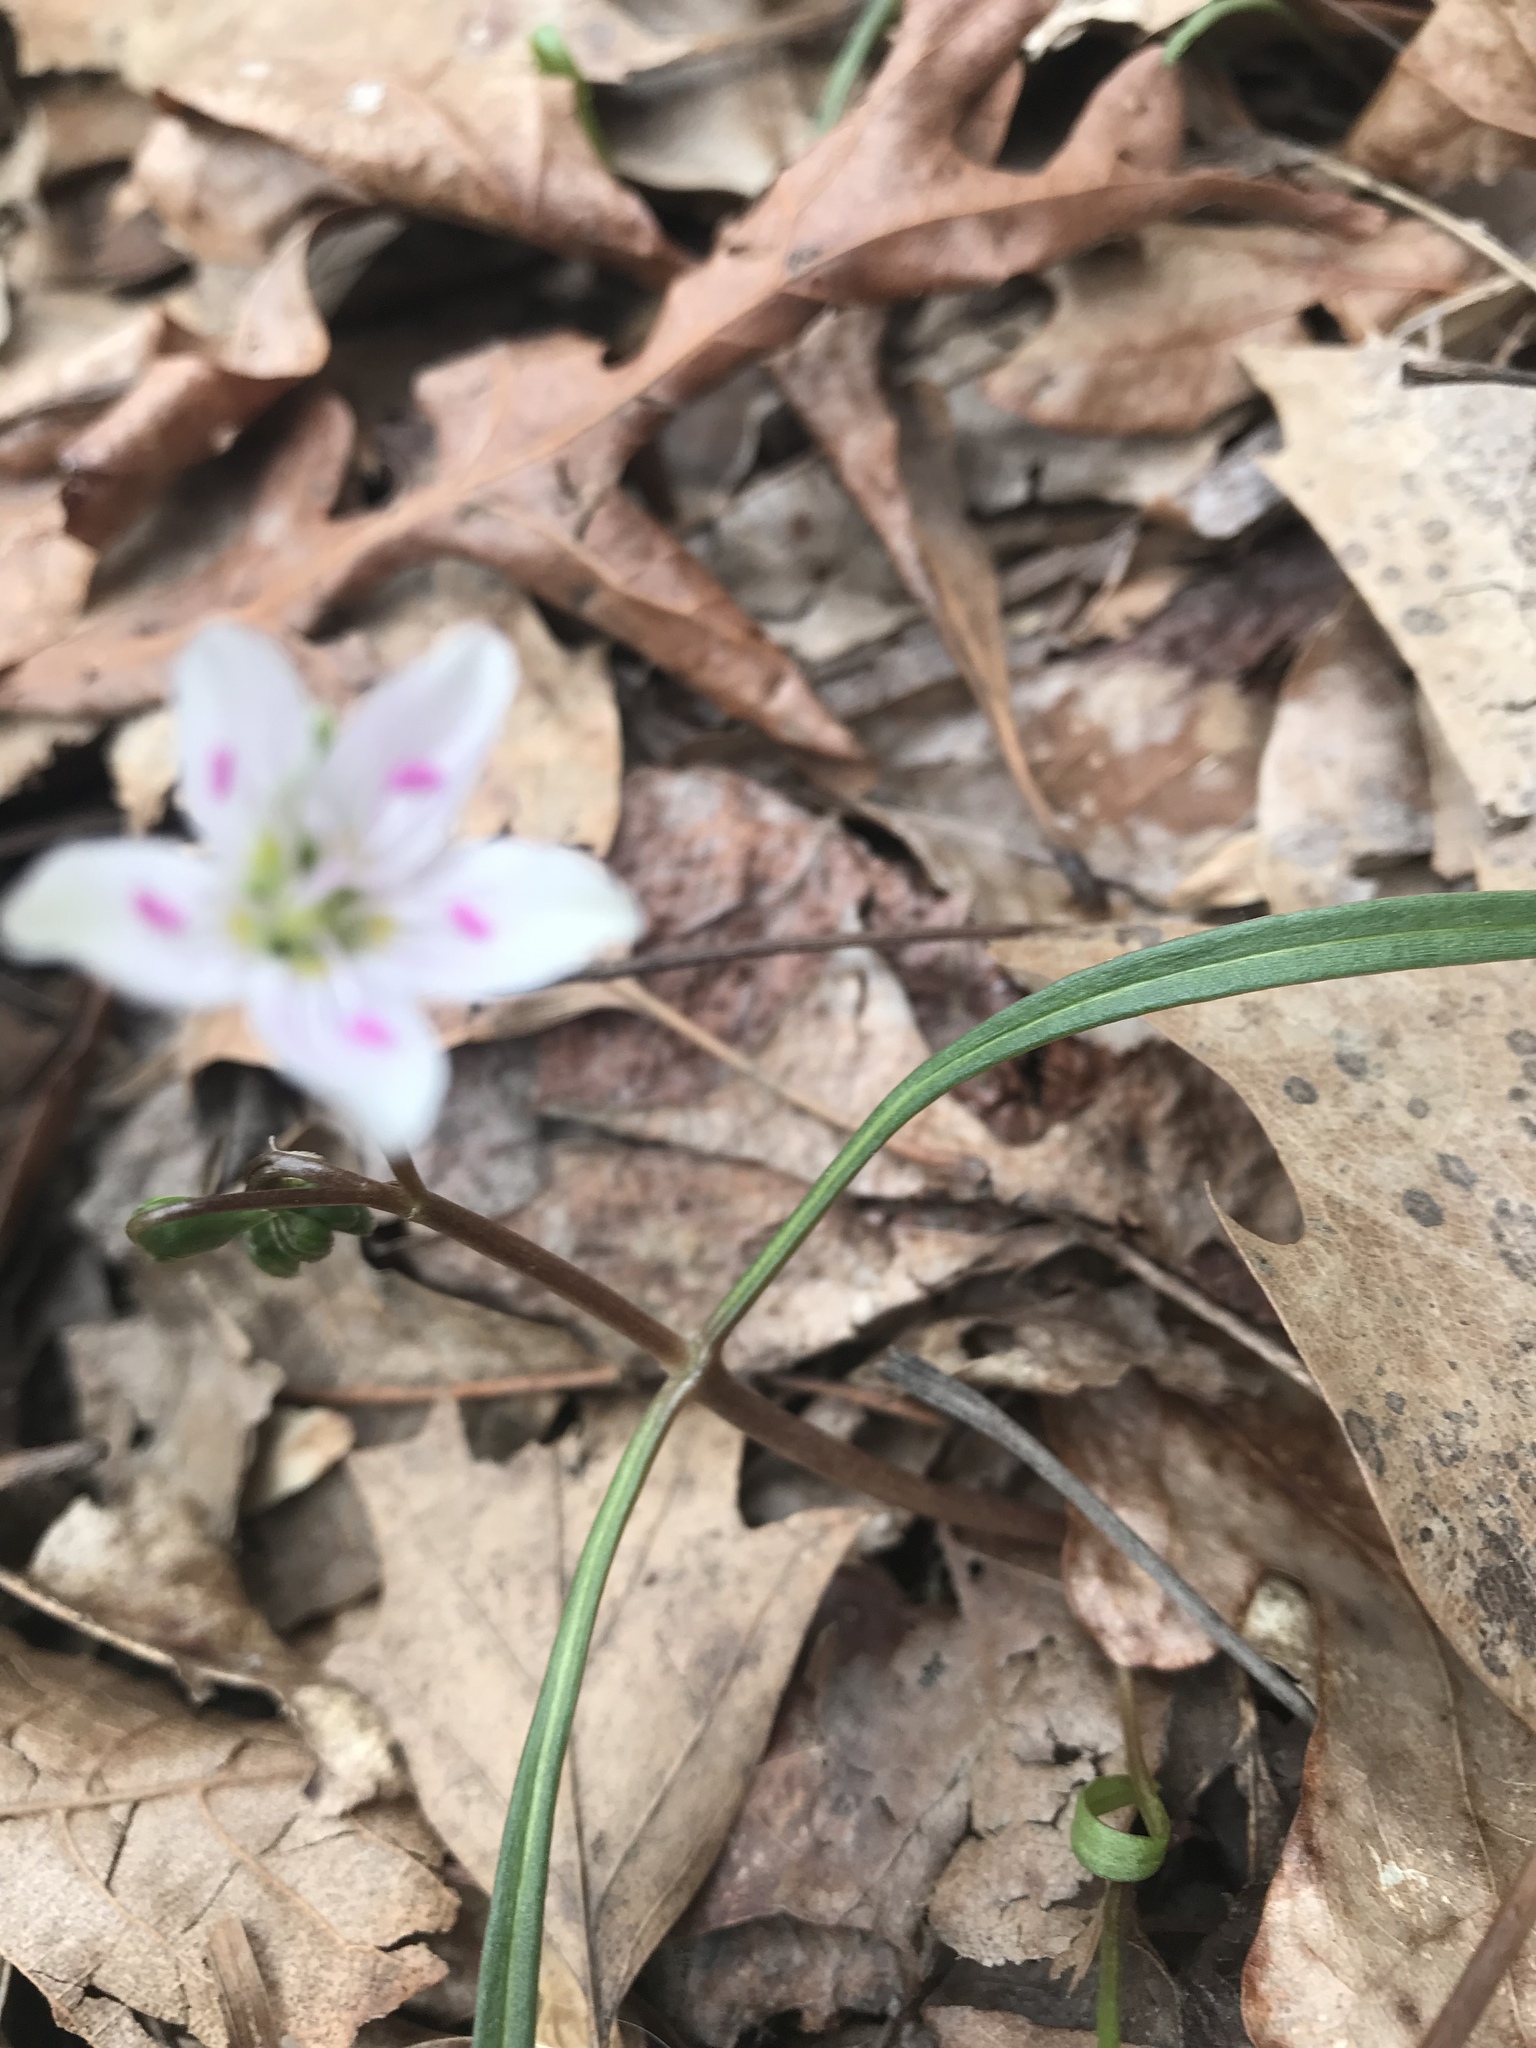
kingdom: Plantae
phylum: Tracheophyta
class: Magnoliopsida
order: Caryophyllales
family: Montiaceae
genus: Claytonia
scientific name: Claytonia virginica
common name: Virginia springbeauty
